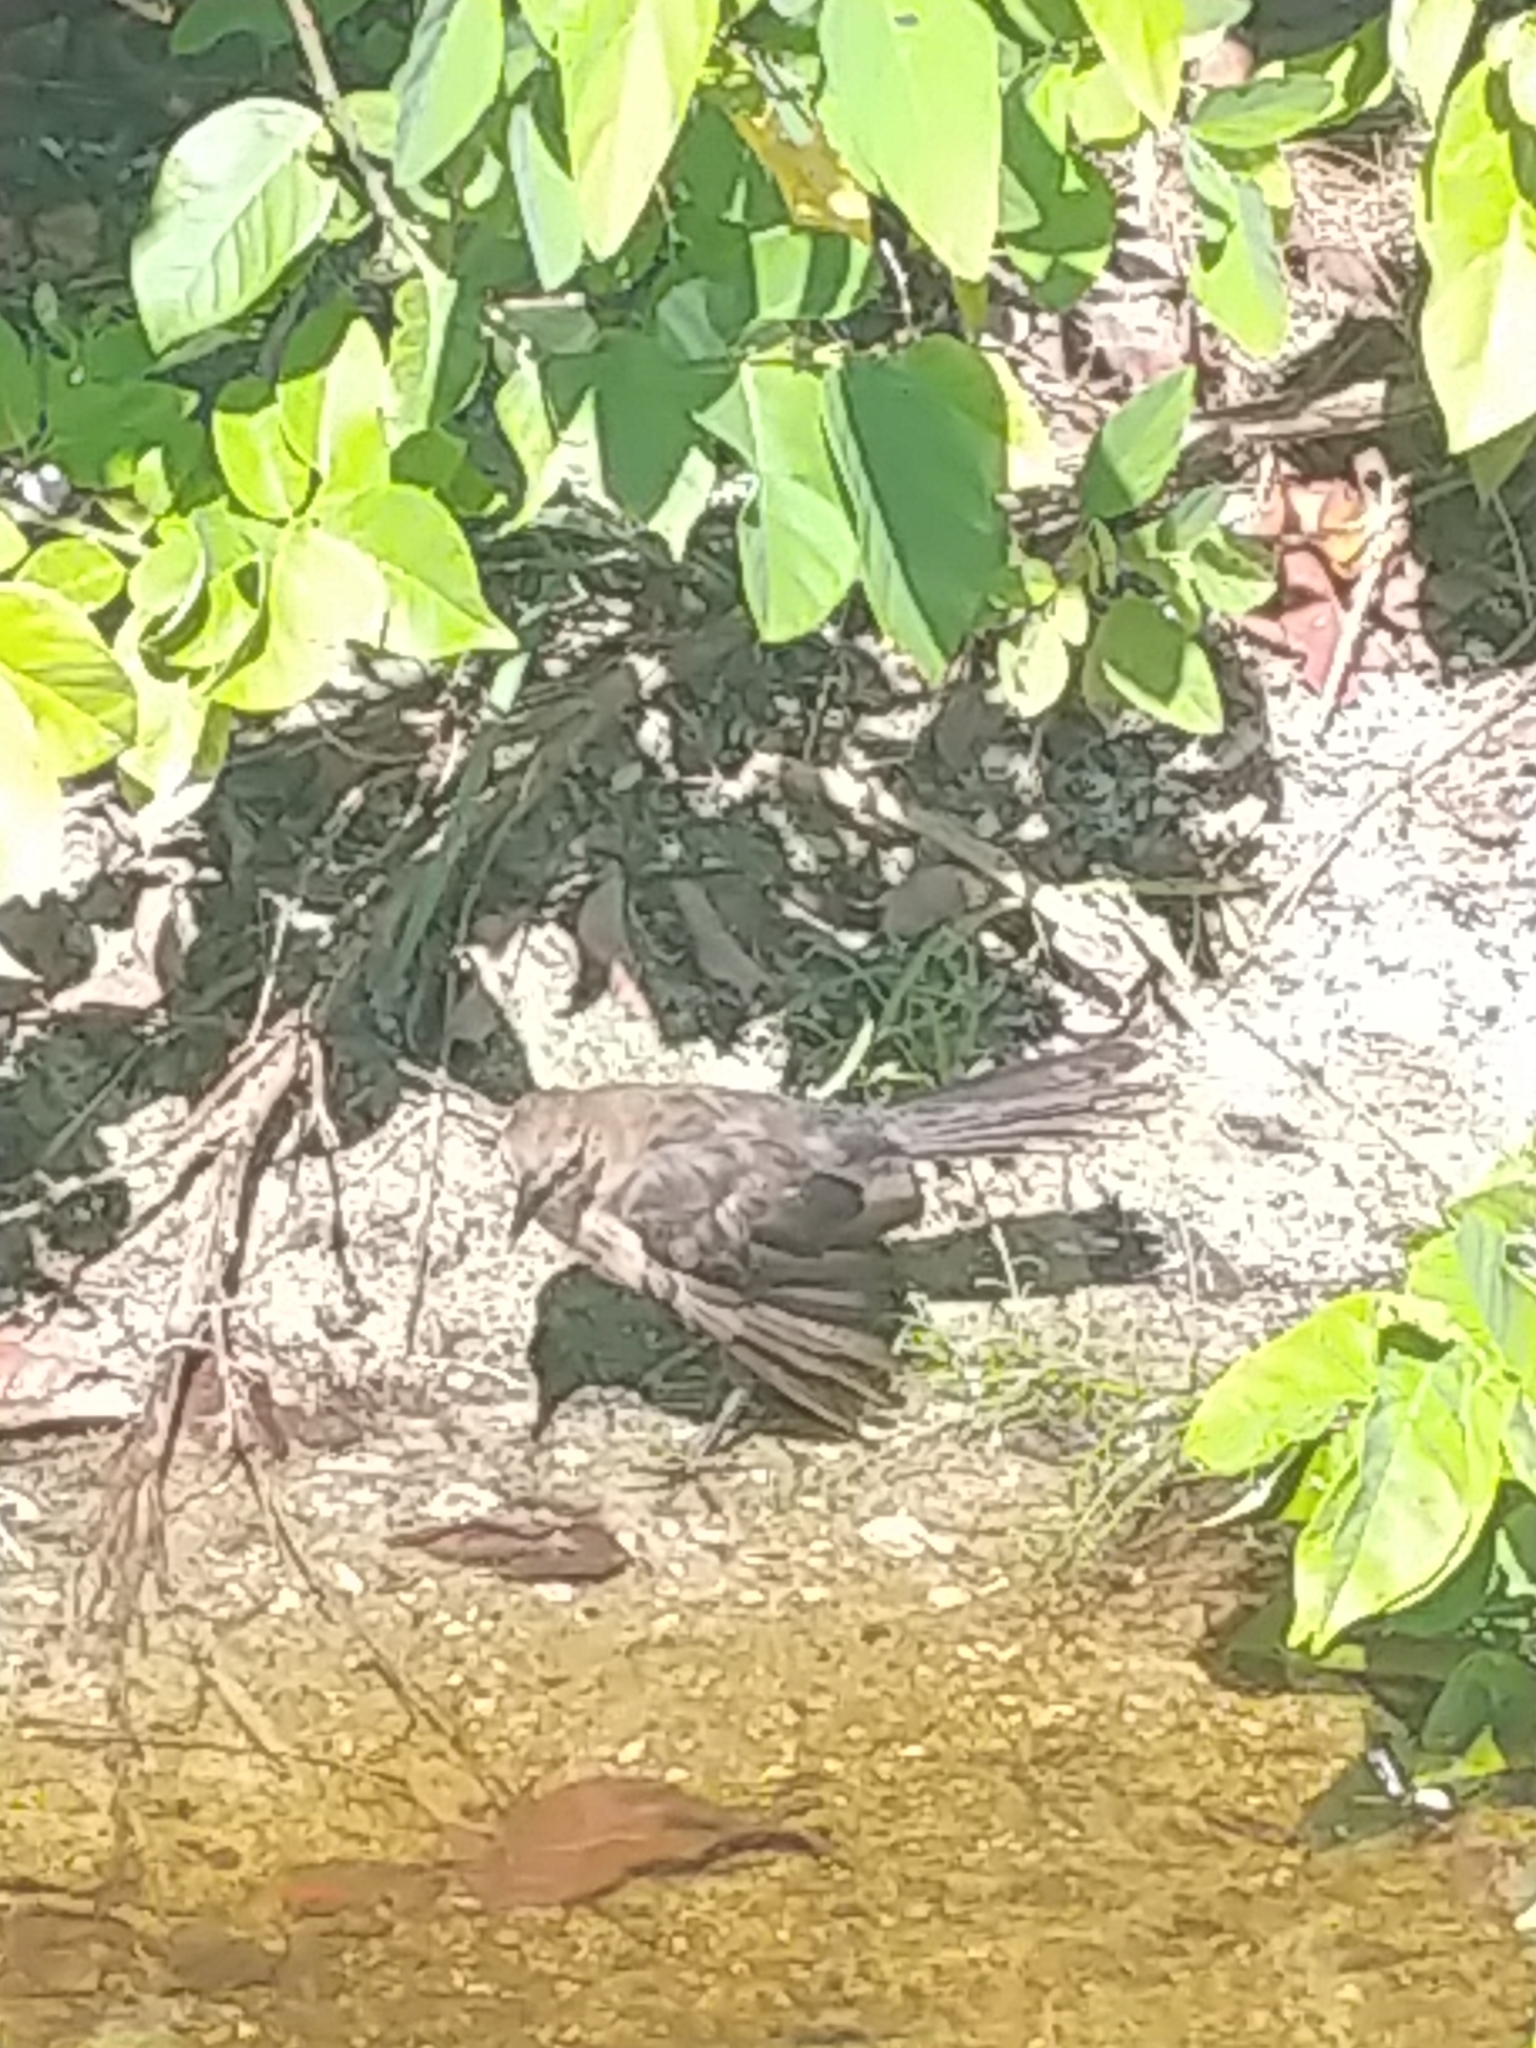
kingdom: Animalia
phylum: Chordata
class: Aves
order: Passeriformes
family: Icteridae
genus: Quiscalus
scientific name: Quiscalus major
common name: Boat-tailed grackle
